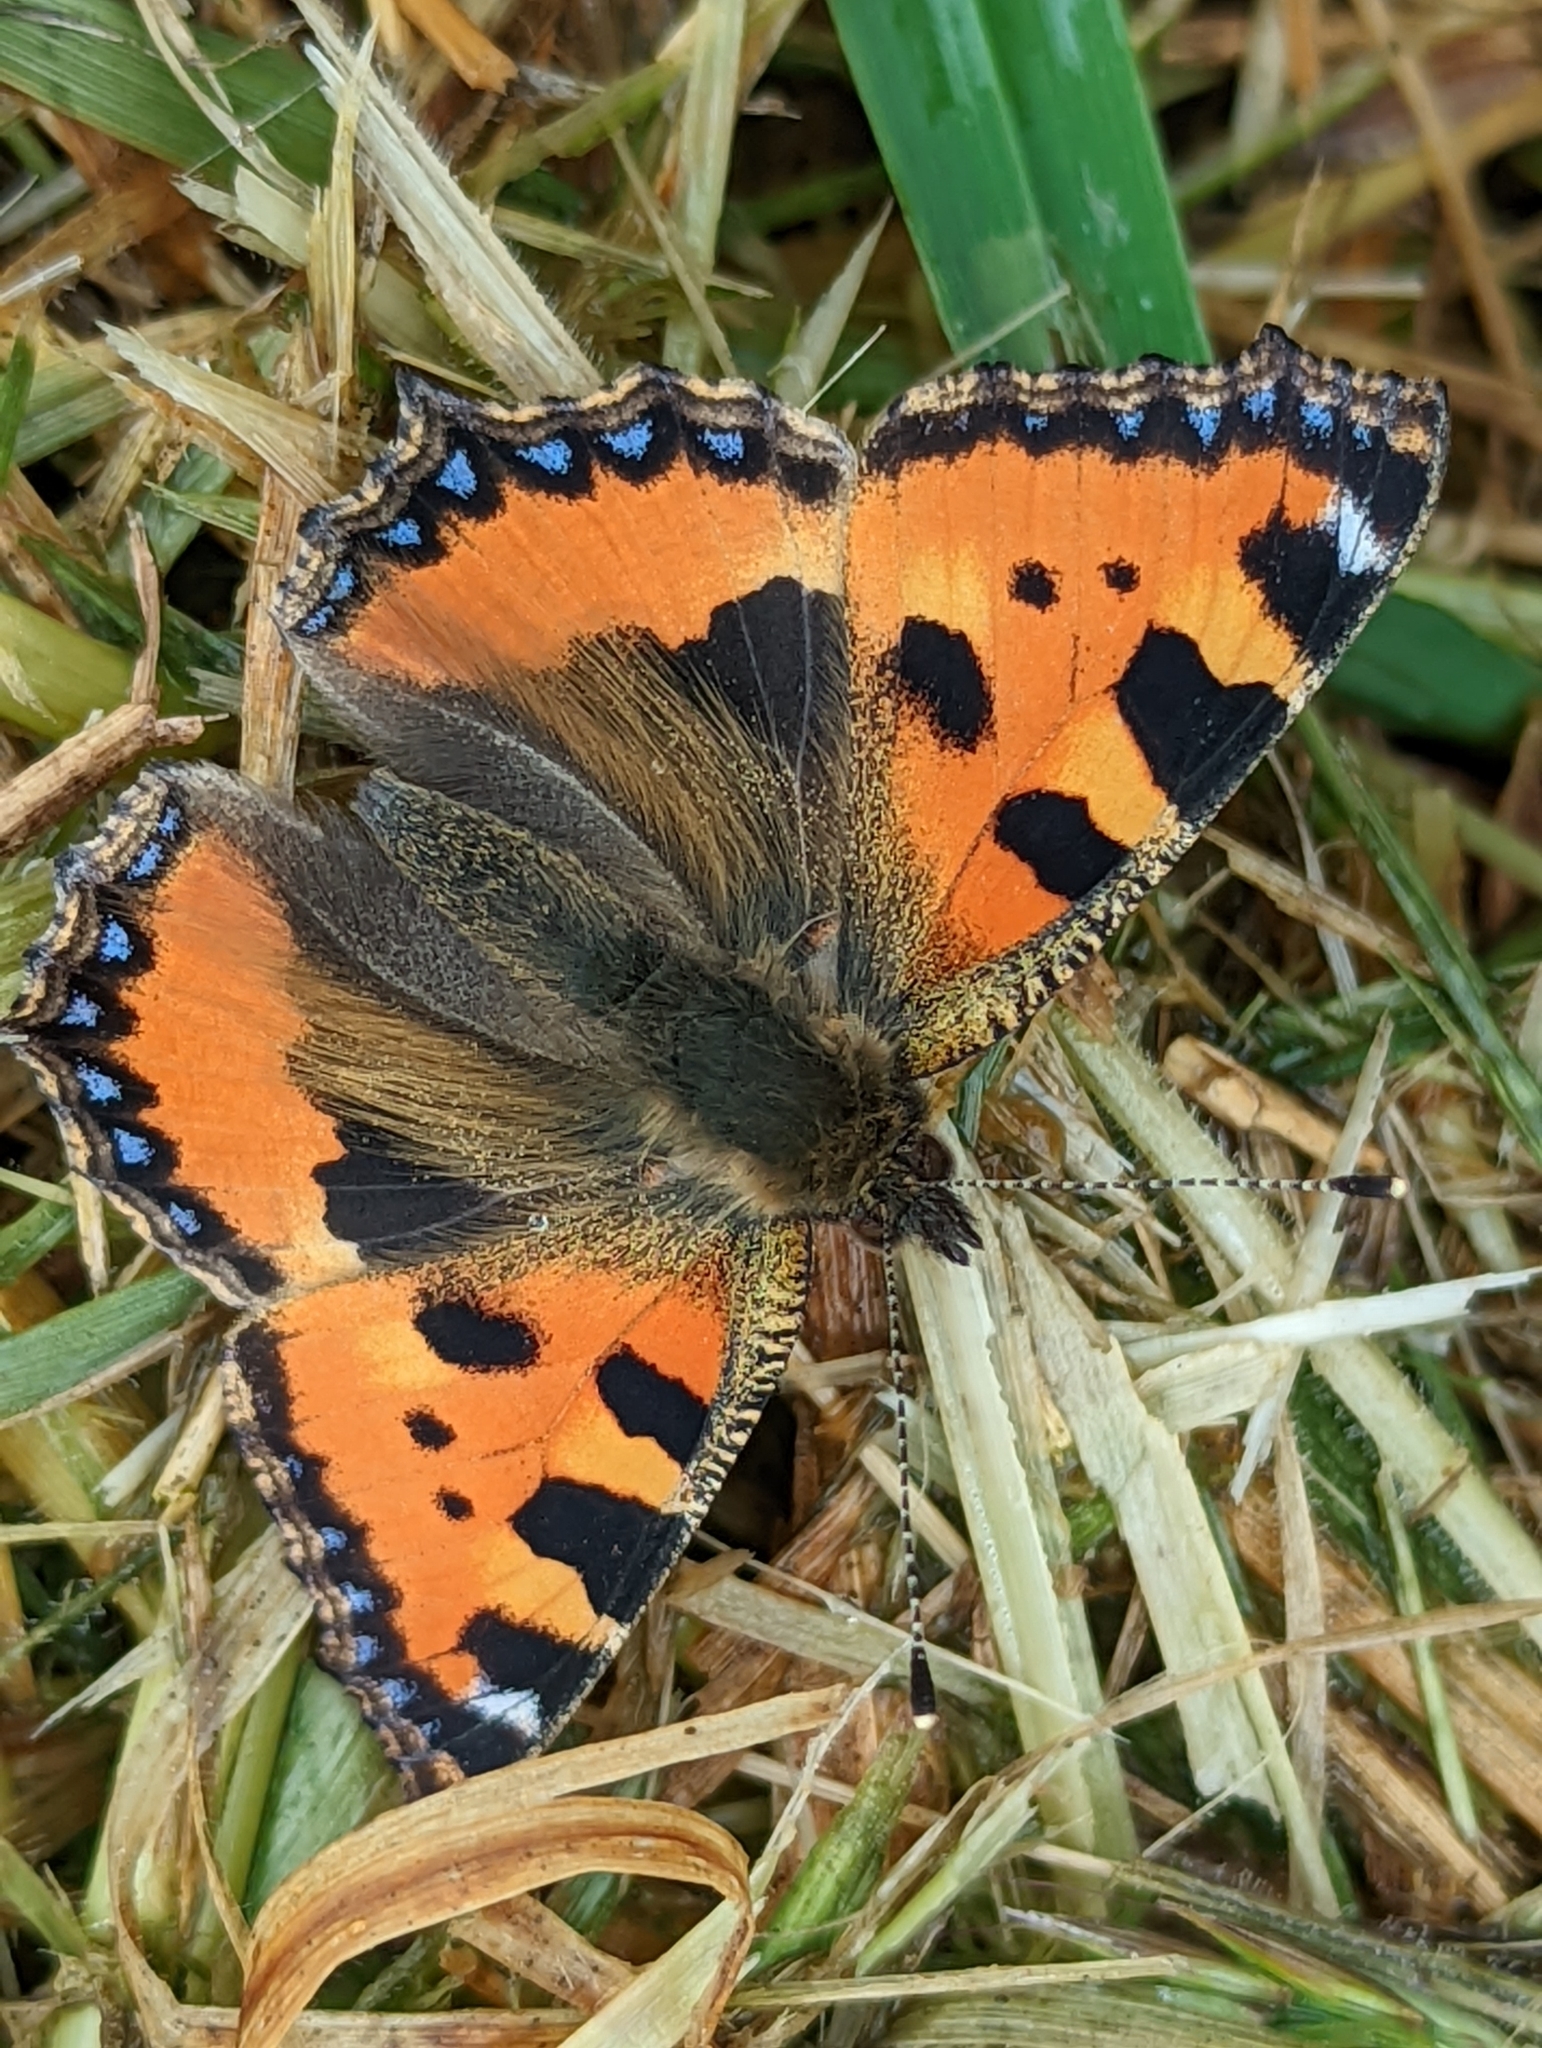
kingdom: Animalia
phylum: Arthropoda
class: Insecta
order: Lepidoptera
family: Nymphalidae
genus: Aglais
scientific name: Aglais urticae
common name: Small tortoiseshell
